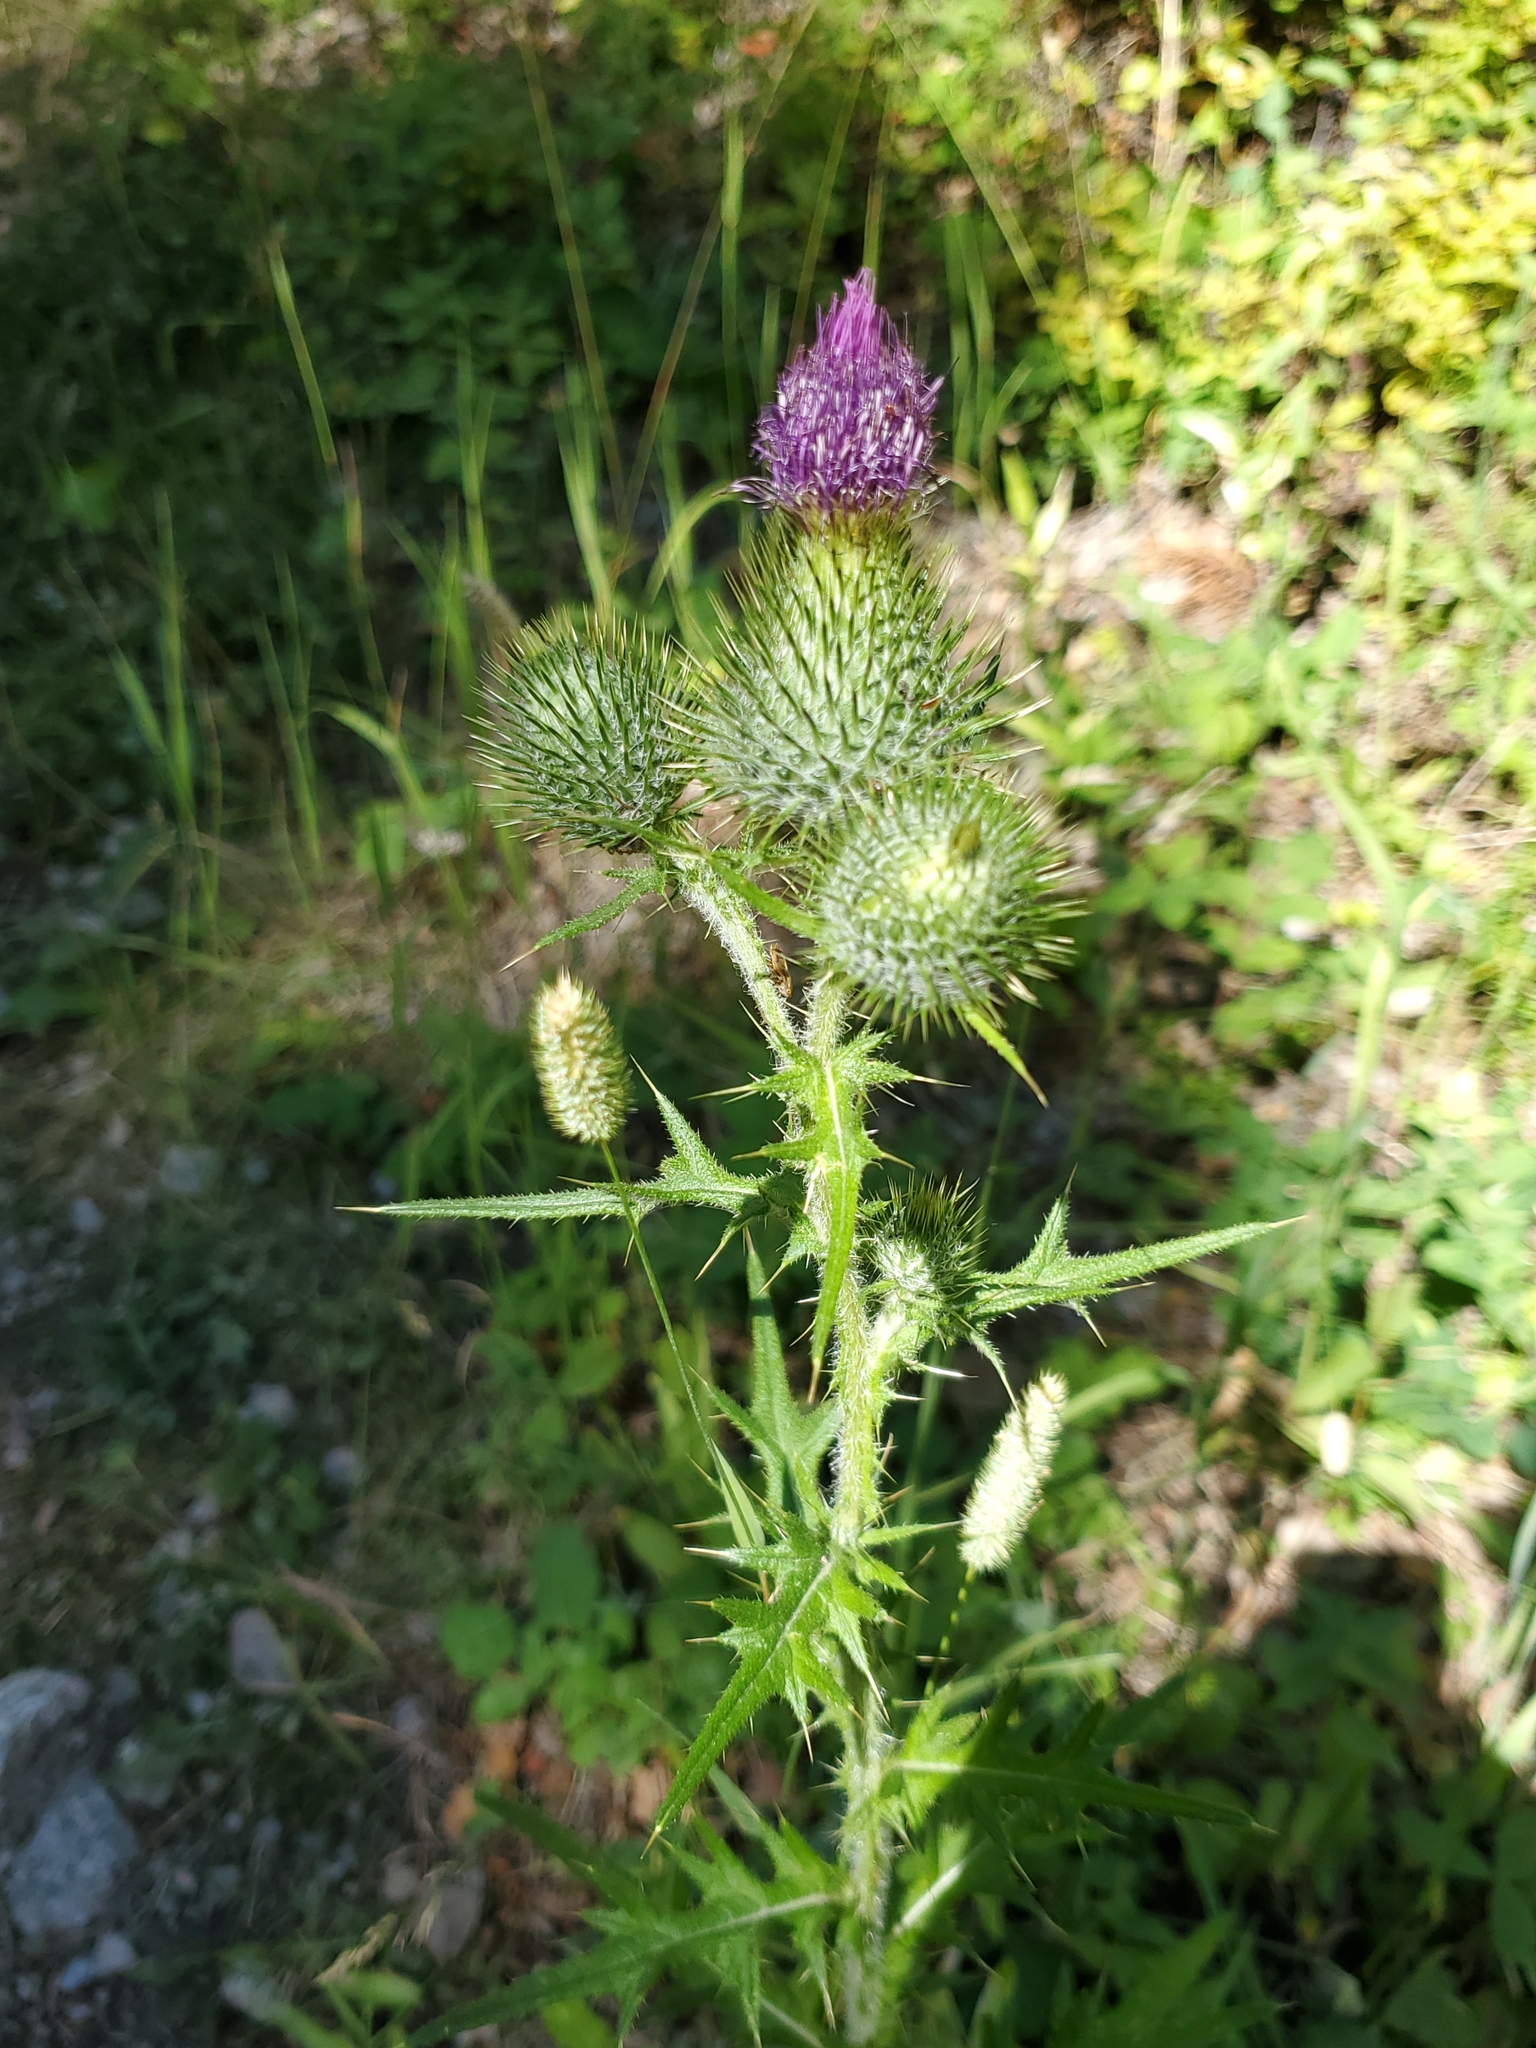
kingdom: Plantae
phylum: Tracheophyta
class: Magnoliopsida
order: Asterales
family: Asteraceae
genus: Cirsium
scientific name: Cirsium vulgare
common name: Bull thistle
